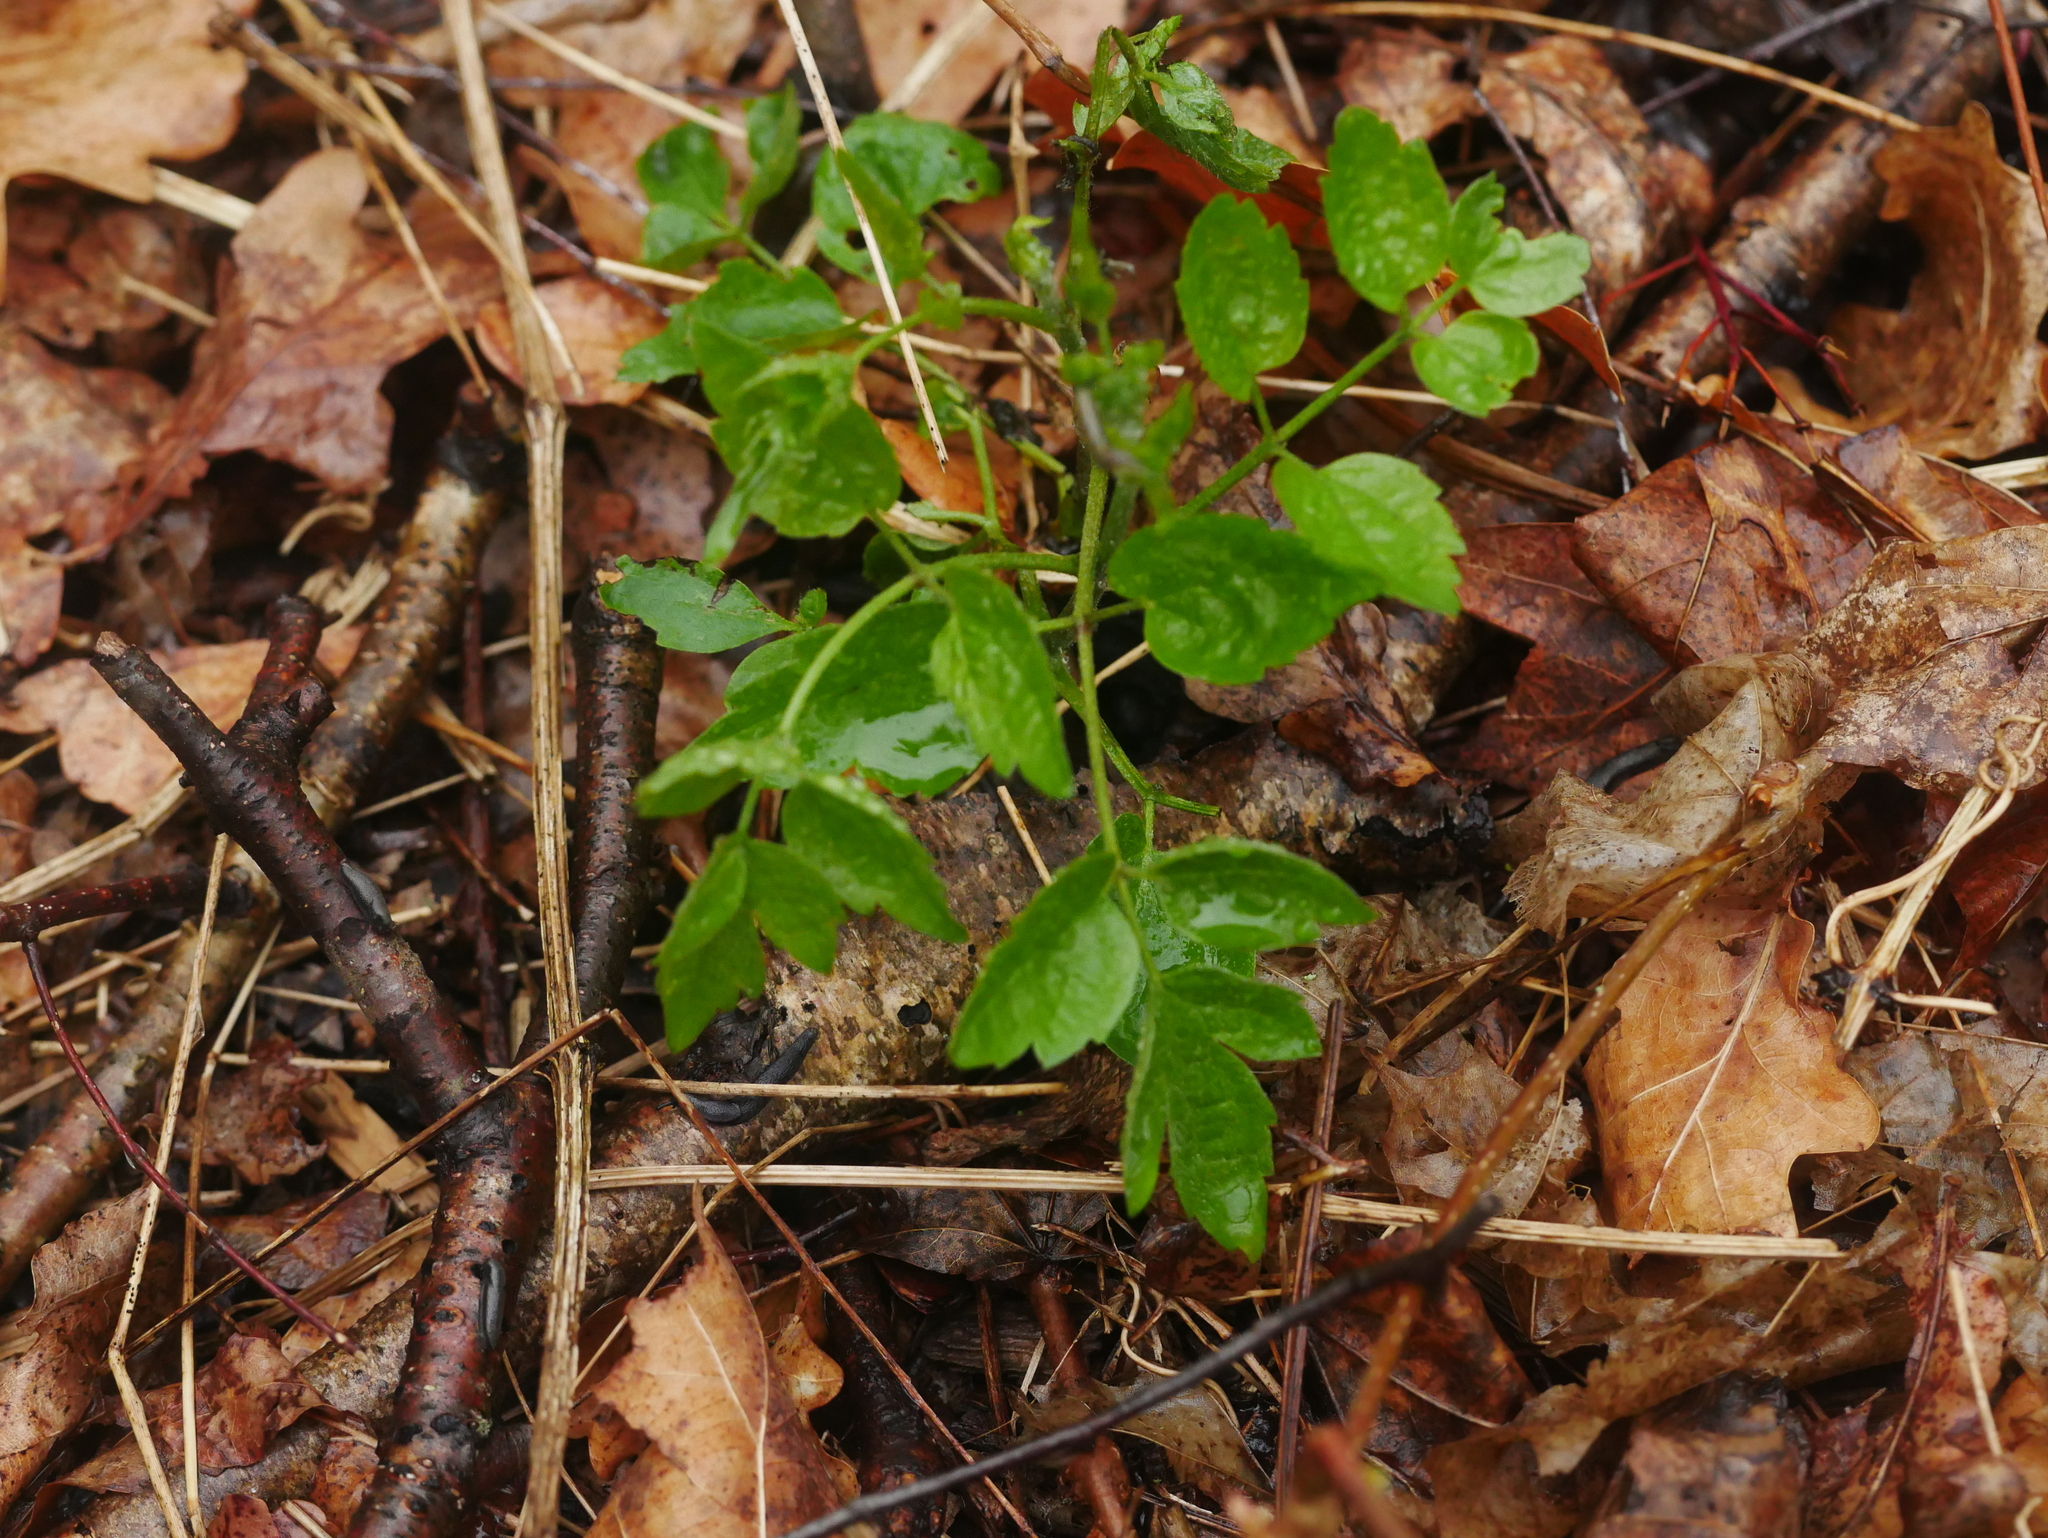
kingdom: Plantae
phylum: Tracheophyta
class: Magnoliopsida
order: Ranunculales
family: Ranunculaceae
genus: Clematis
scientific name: Clematis vitalba
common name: Evergreen clematis
